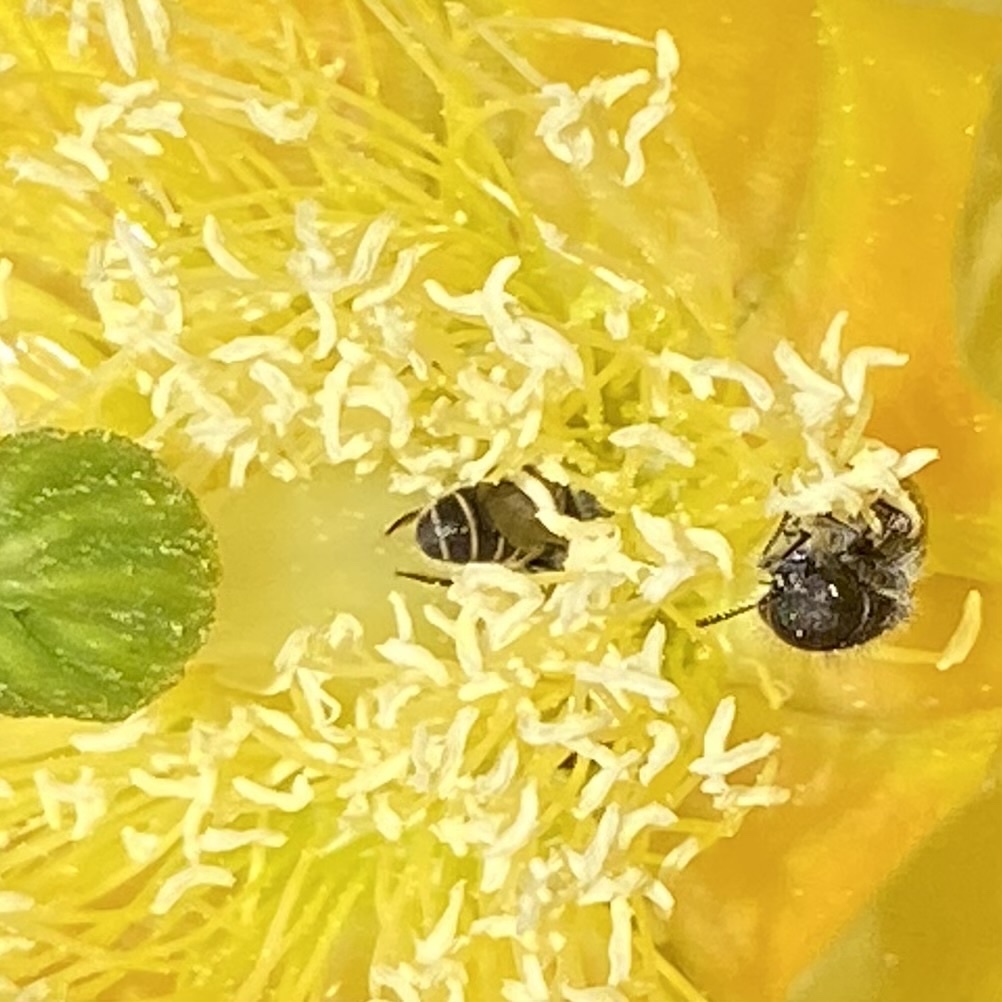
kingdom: Animalia
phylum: Arthropoda
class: Insecta
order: Hymenoptera
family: Megachilidae
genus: Ashmeadiella
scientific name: Ashmeadiella
